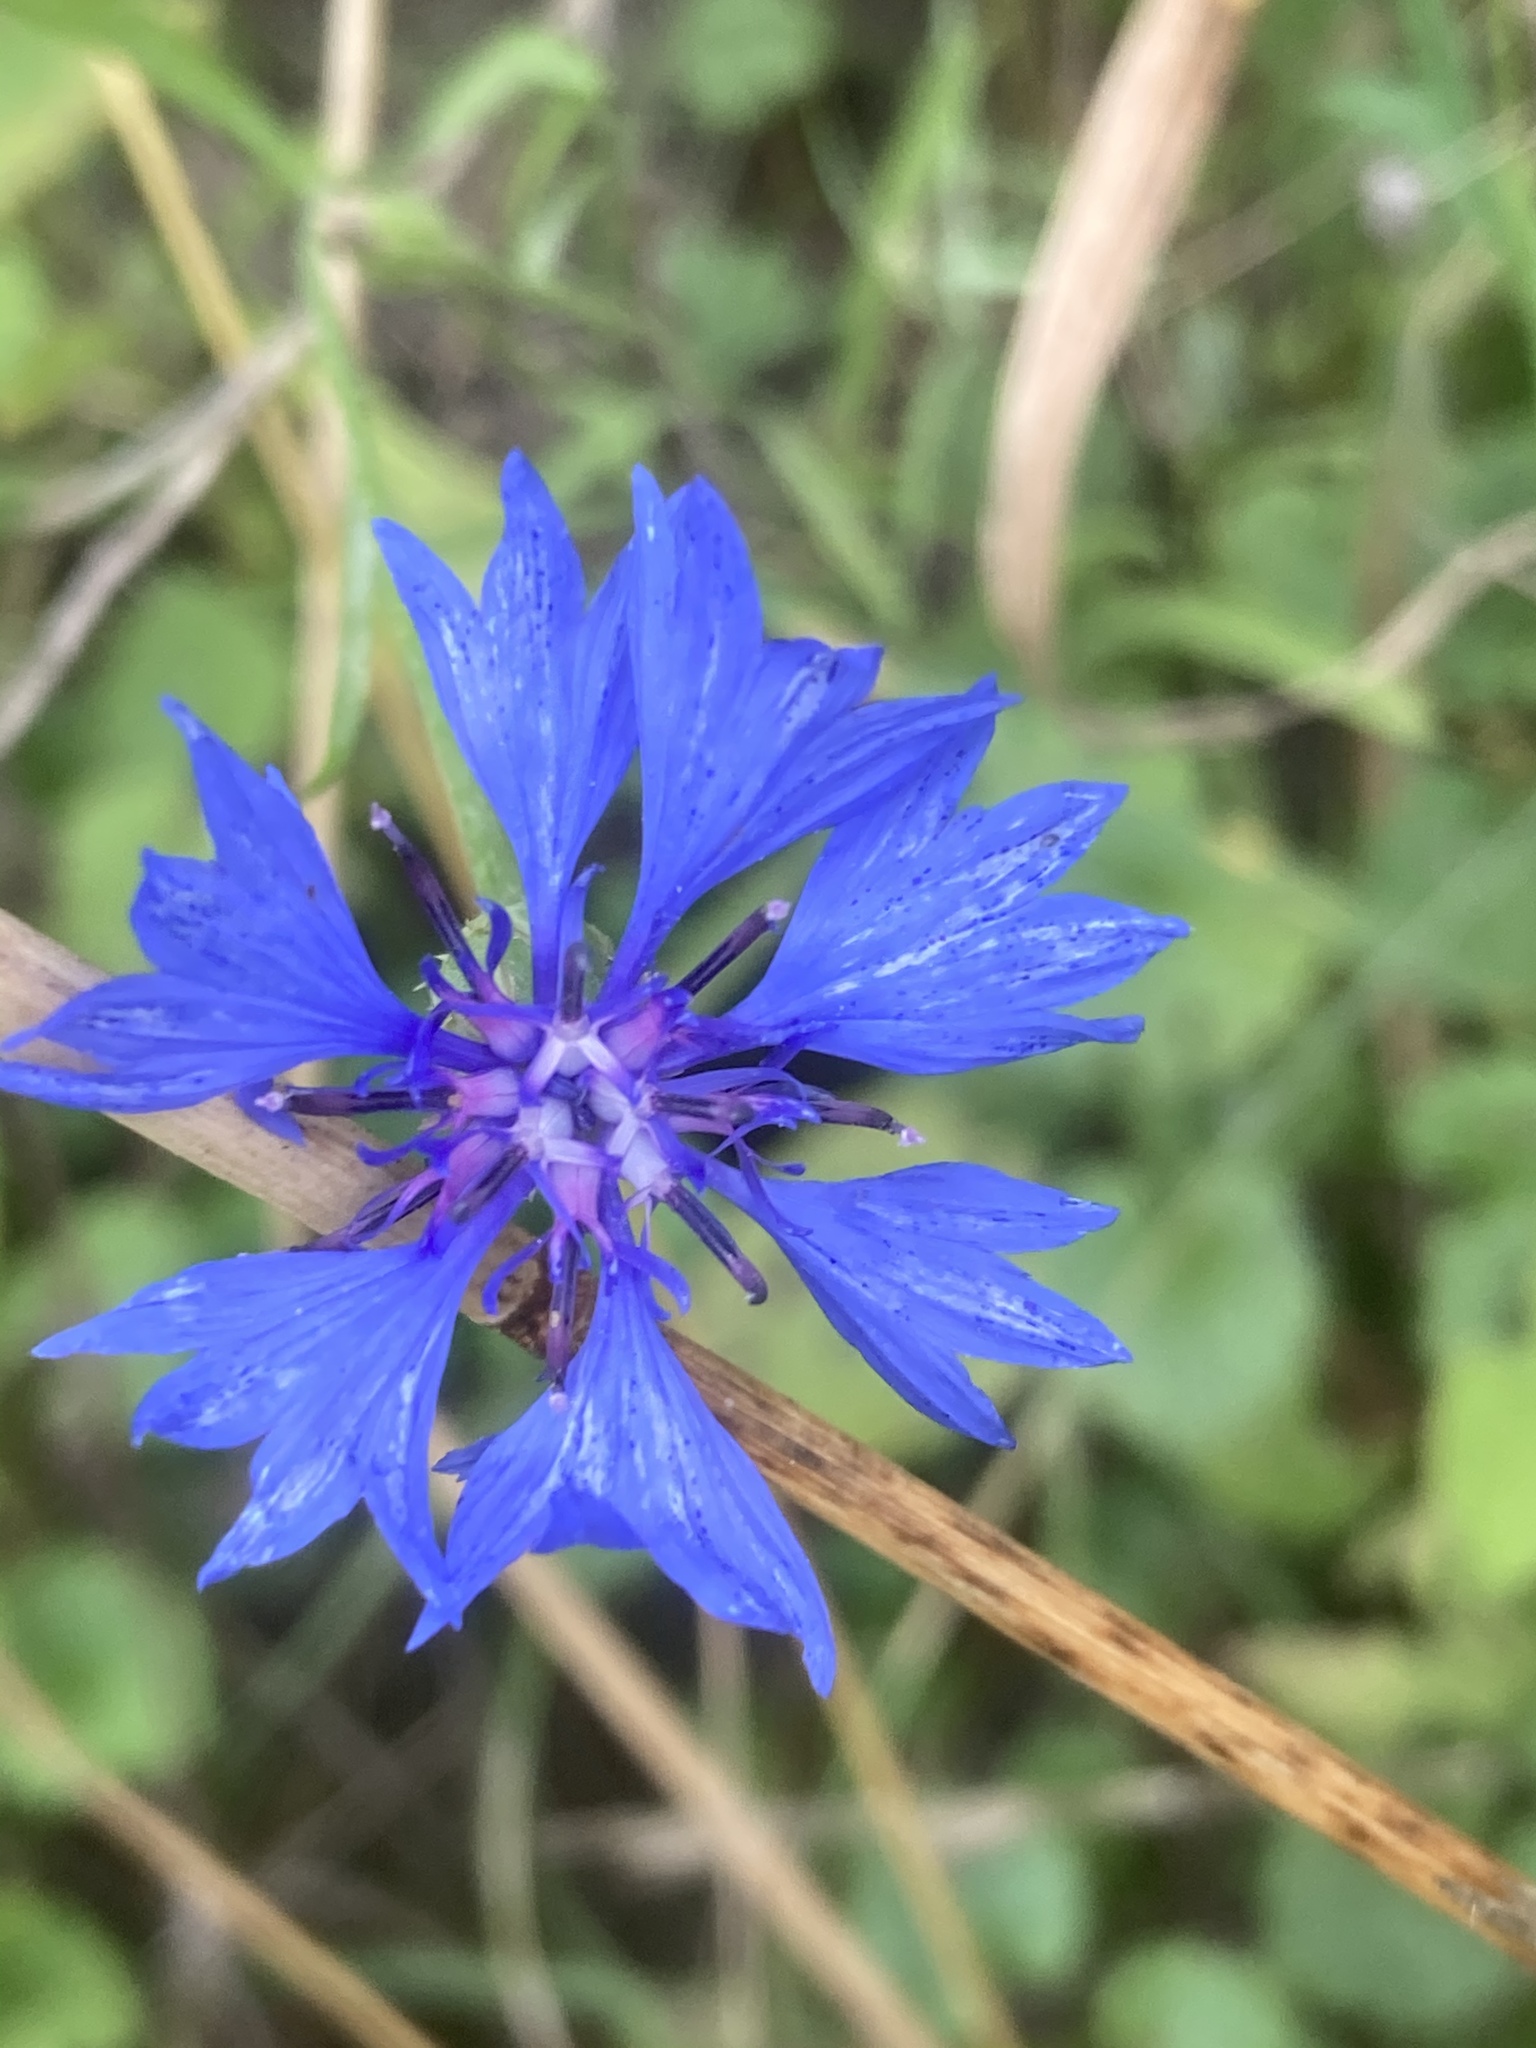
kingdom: Plantae
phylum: Tracheophyta
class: Magnoliopsida
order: Asterales
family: Asteraceae
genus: Centaurea
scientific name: Centaurea cyanus
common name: Cornflower
